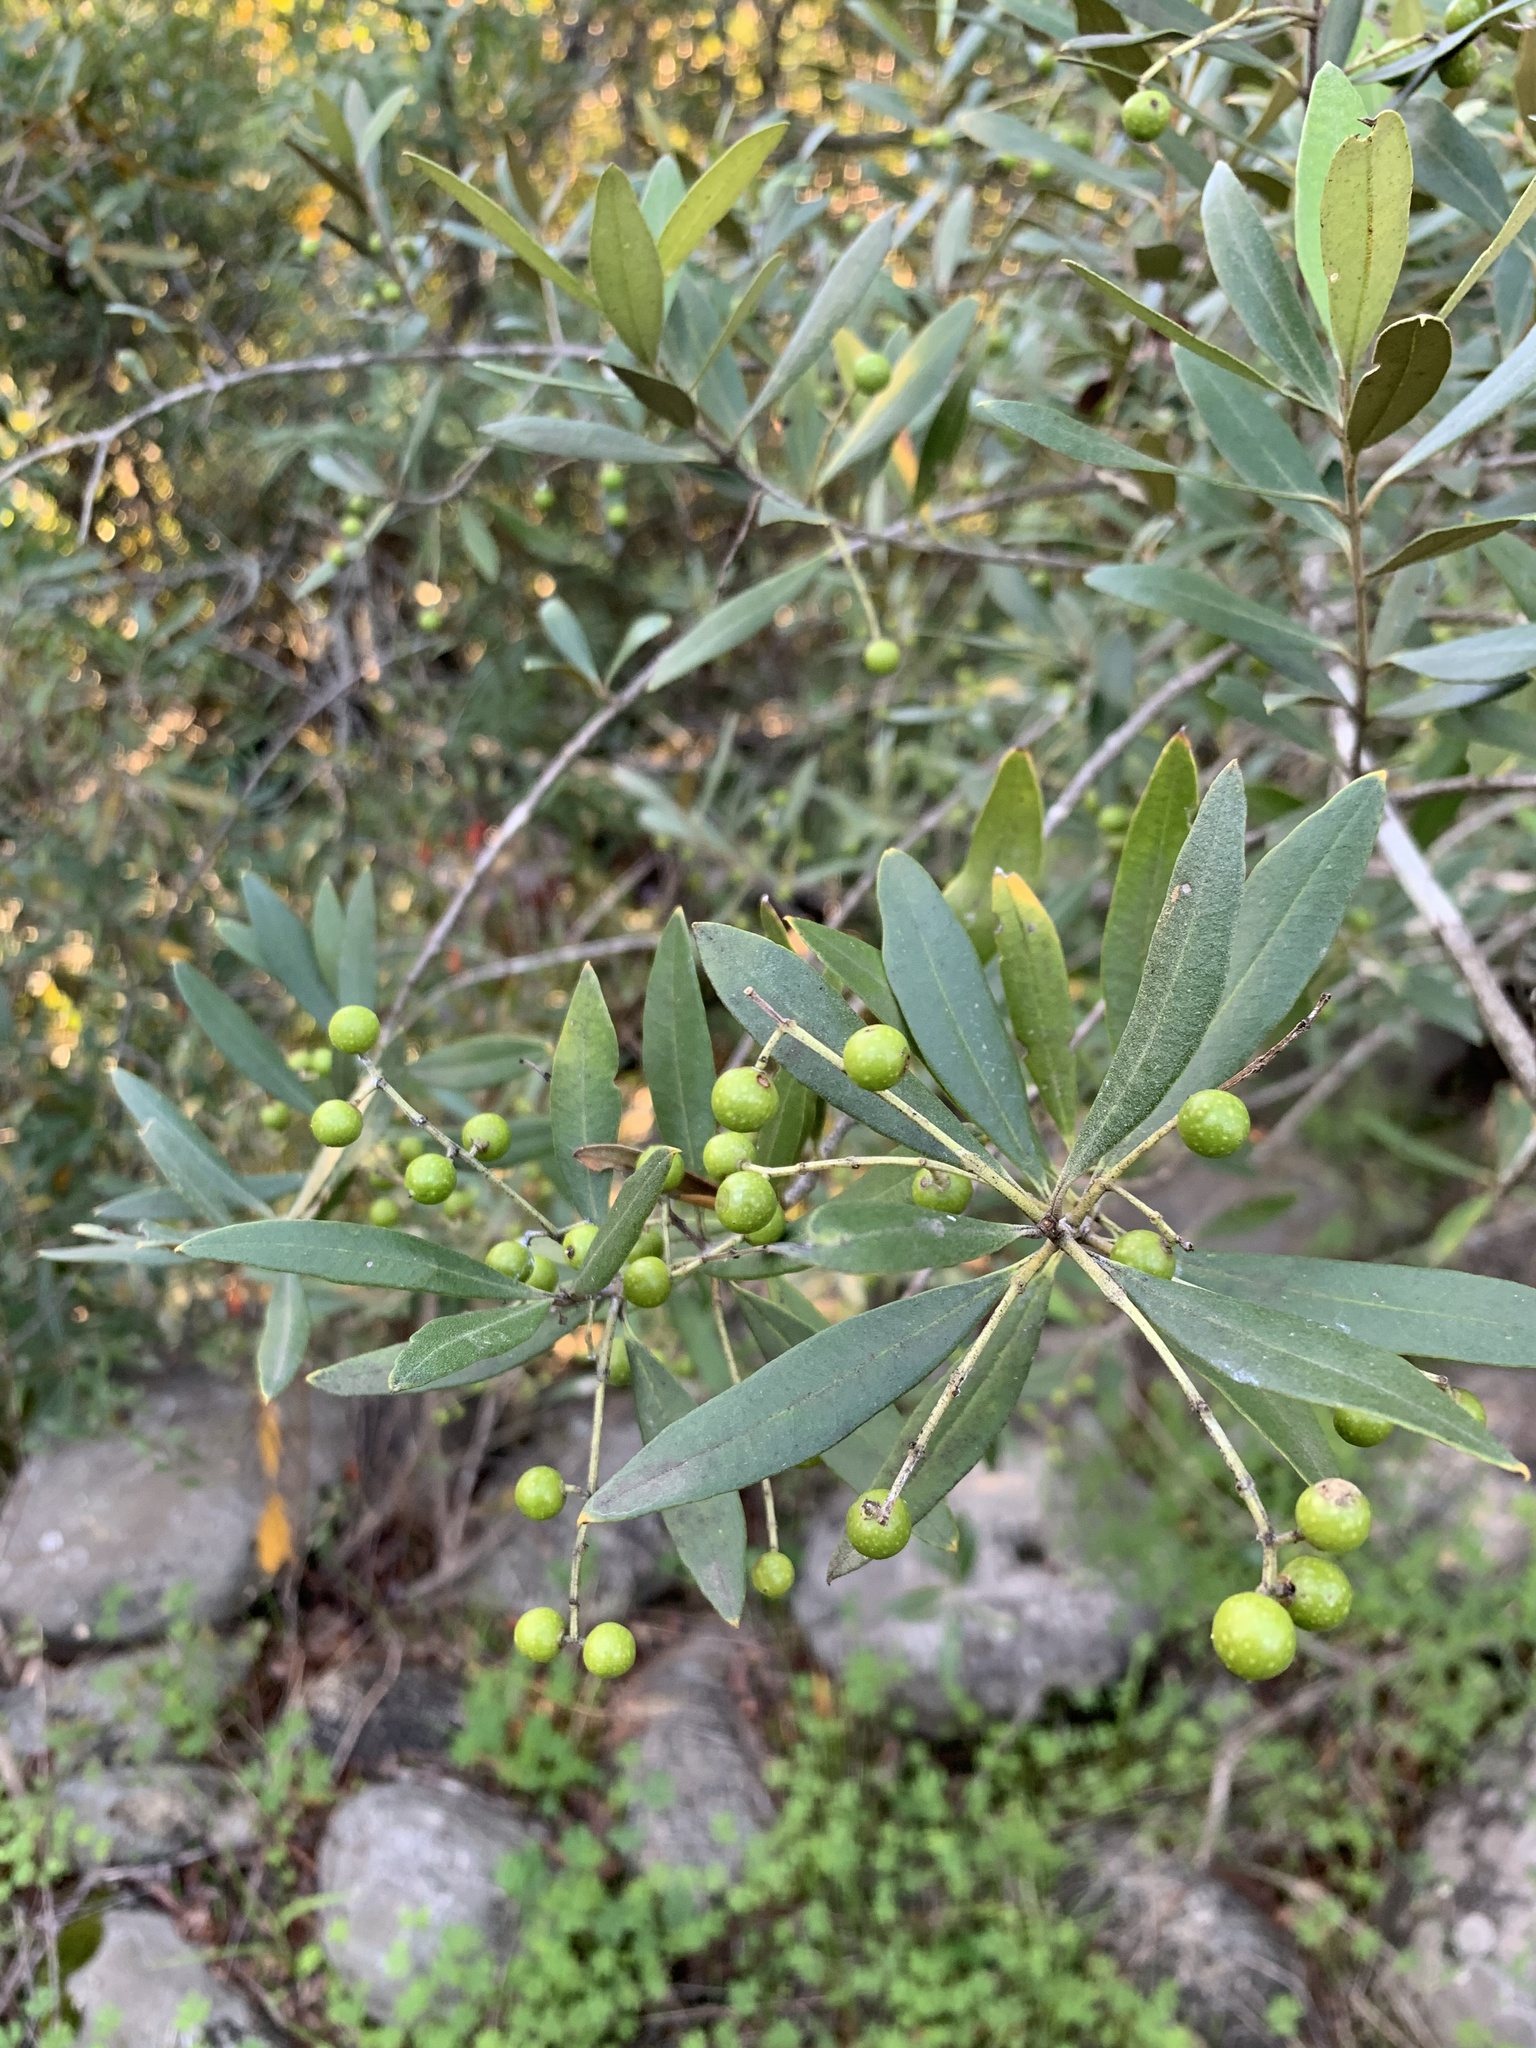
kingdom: Plantae
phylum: Tracheophyta
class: Magnoliopsida
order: Lamiales
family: Oleaceae
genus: Olea
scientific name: Olea europaea
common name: Olive
